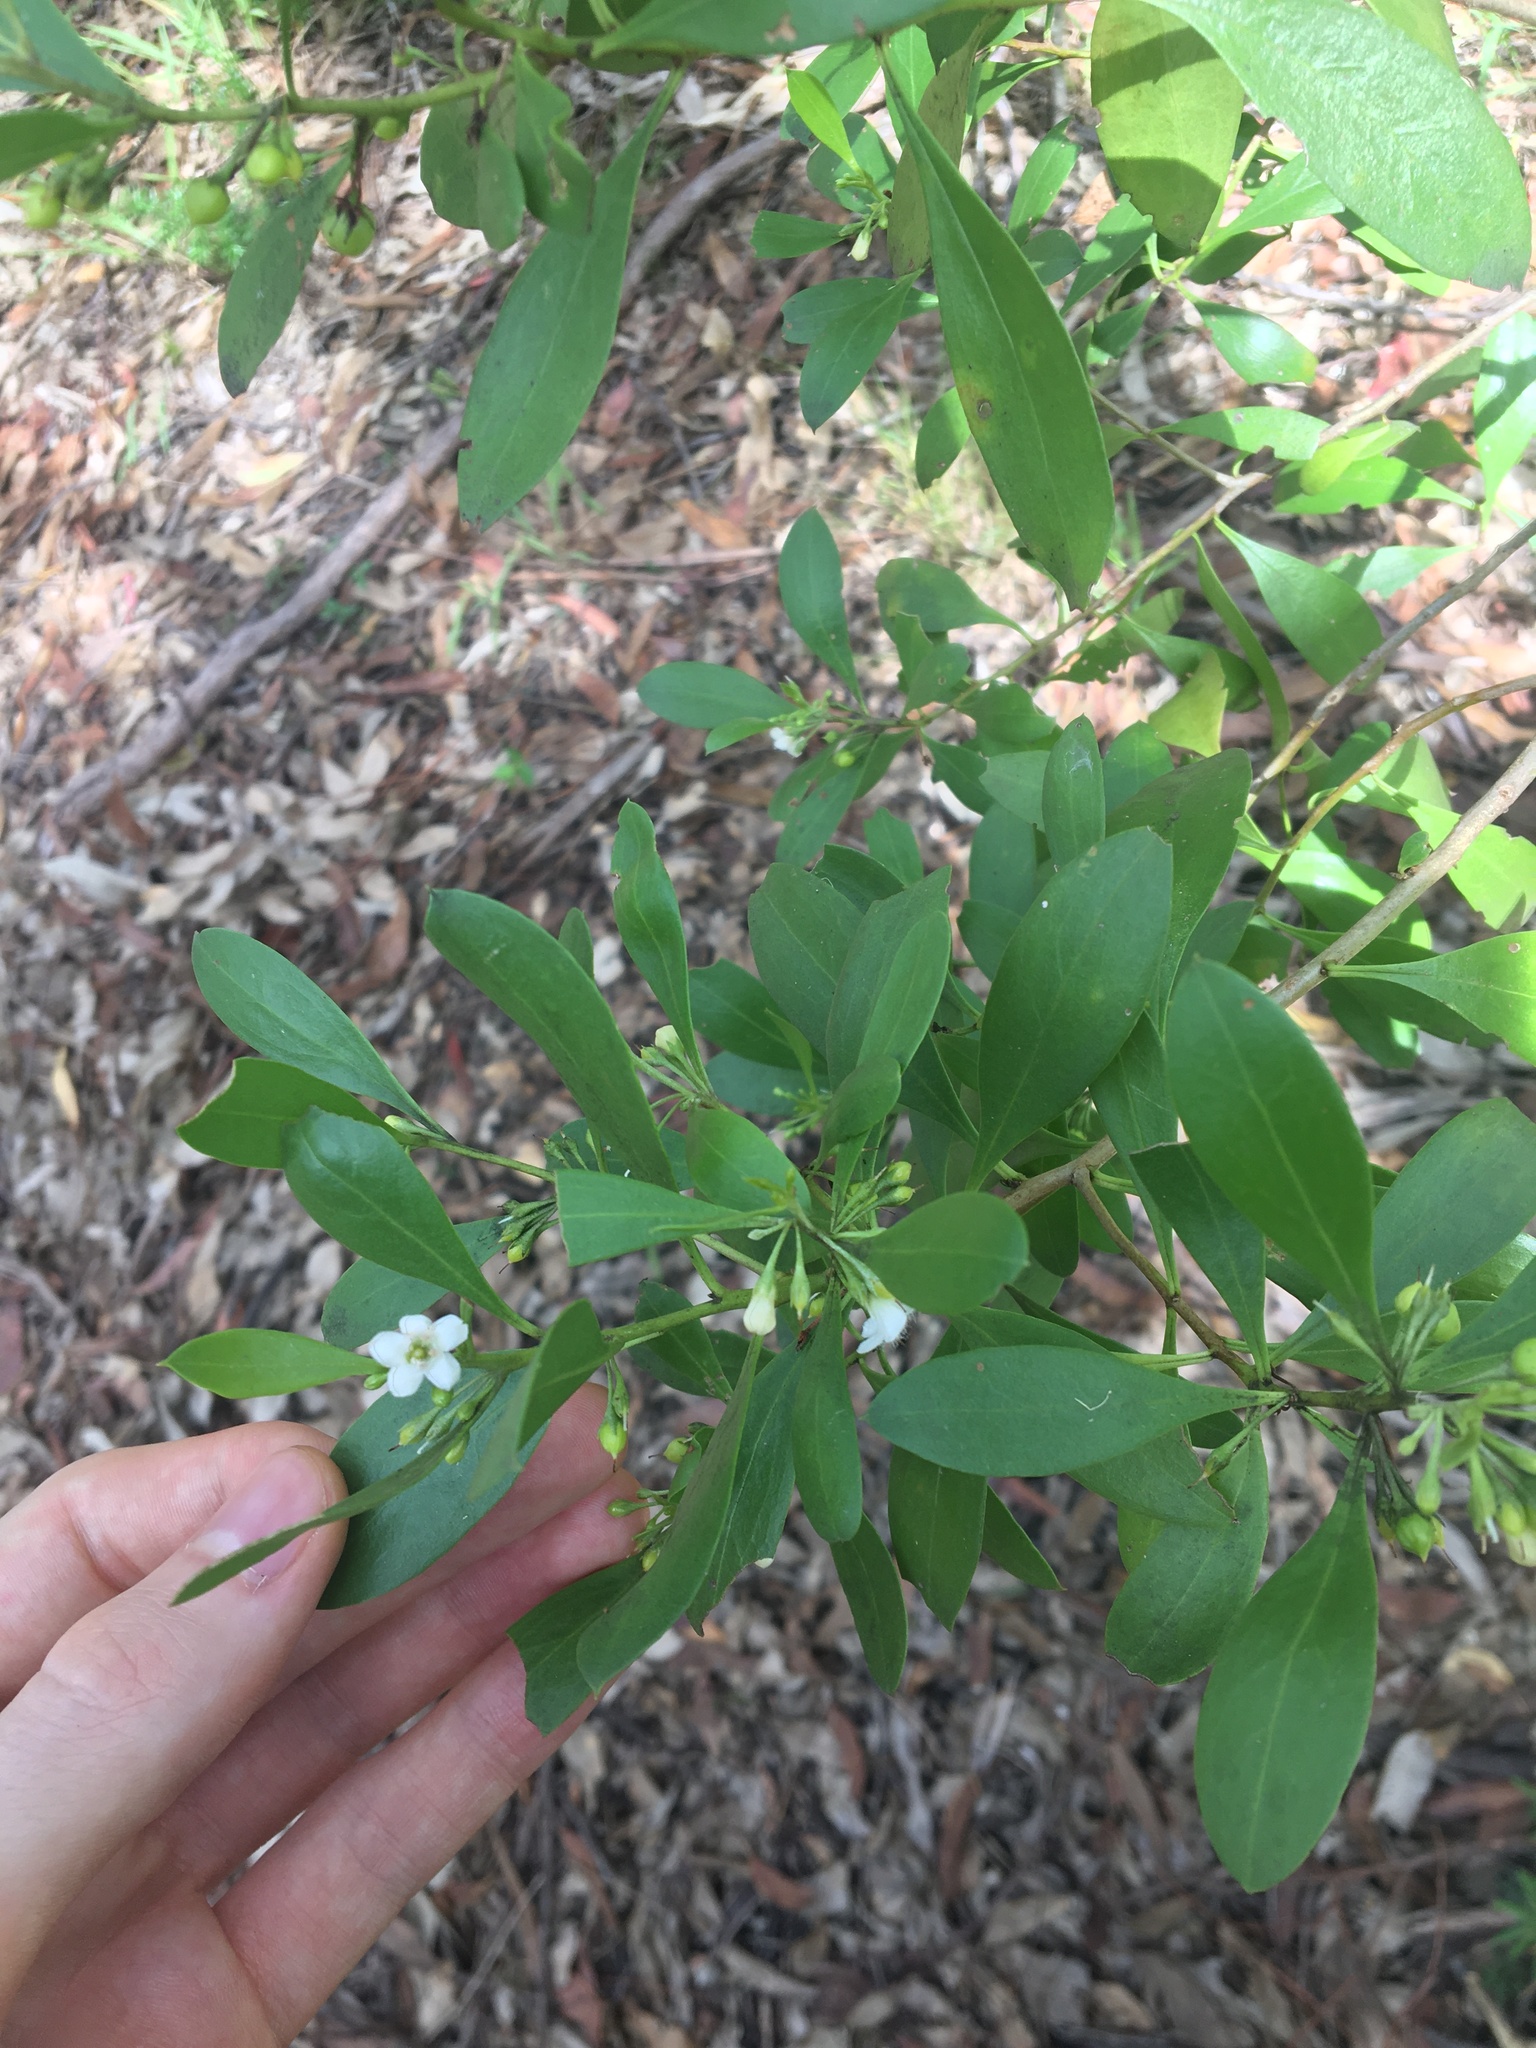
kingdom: Plantae
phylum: Tracheophyta
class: Magnoliopsida
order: Lamiales
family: Scrophulariaceae
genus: Myoporum
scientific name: Myoporum boninense
